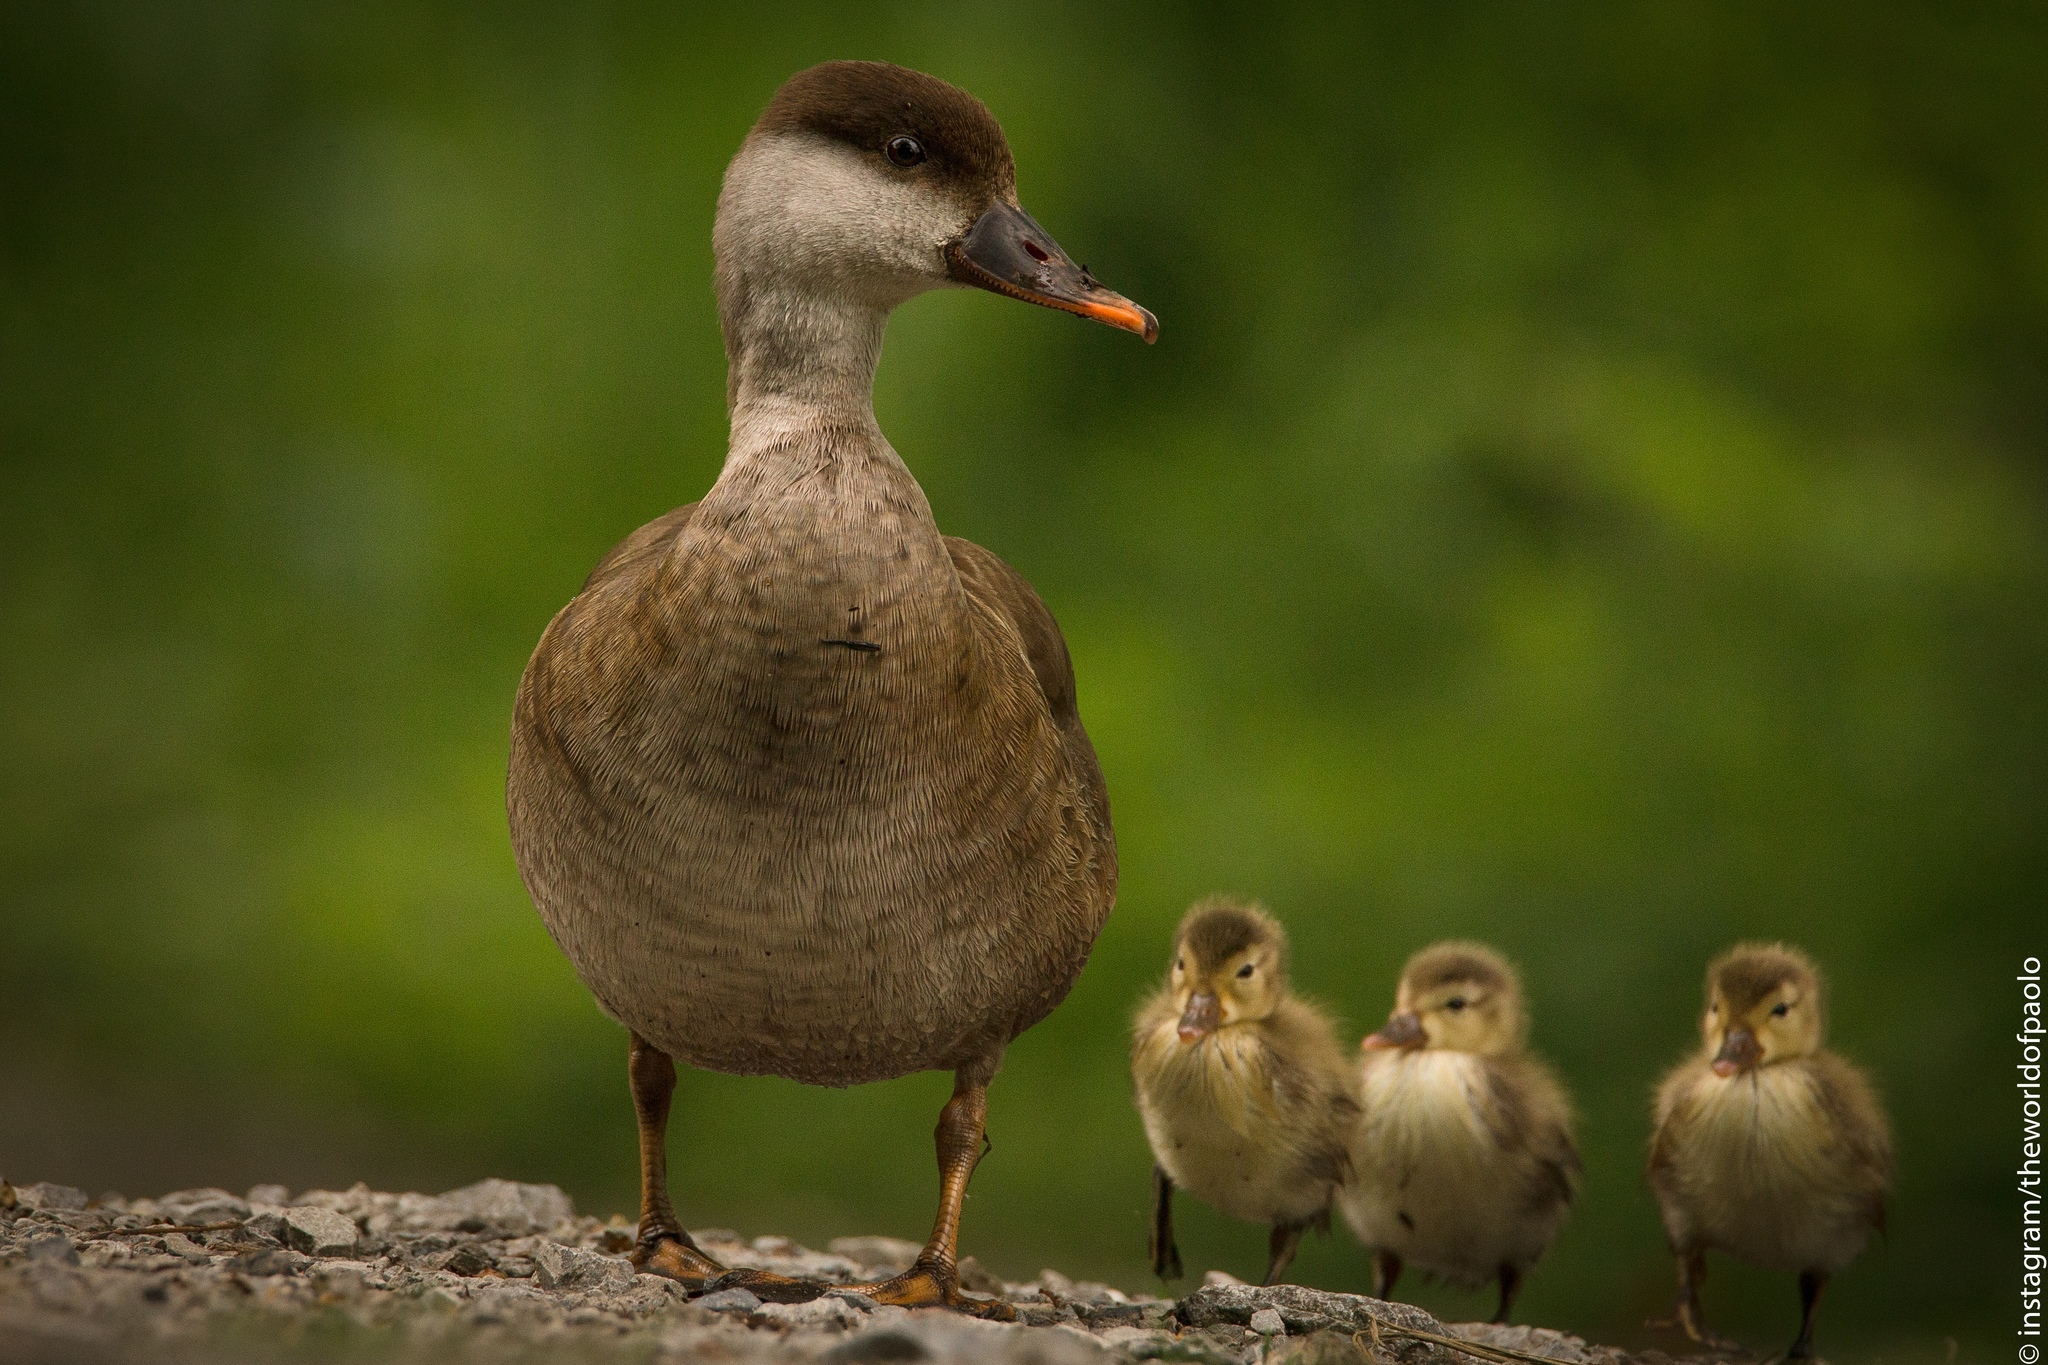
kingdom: Animalia
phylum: Chordata
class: Aves
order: Anseriformes
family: Anatidae
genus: Netta
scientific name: Netta rufina
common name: Red-crested pochard
